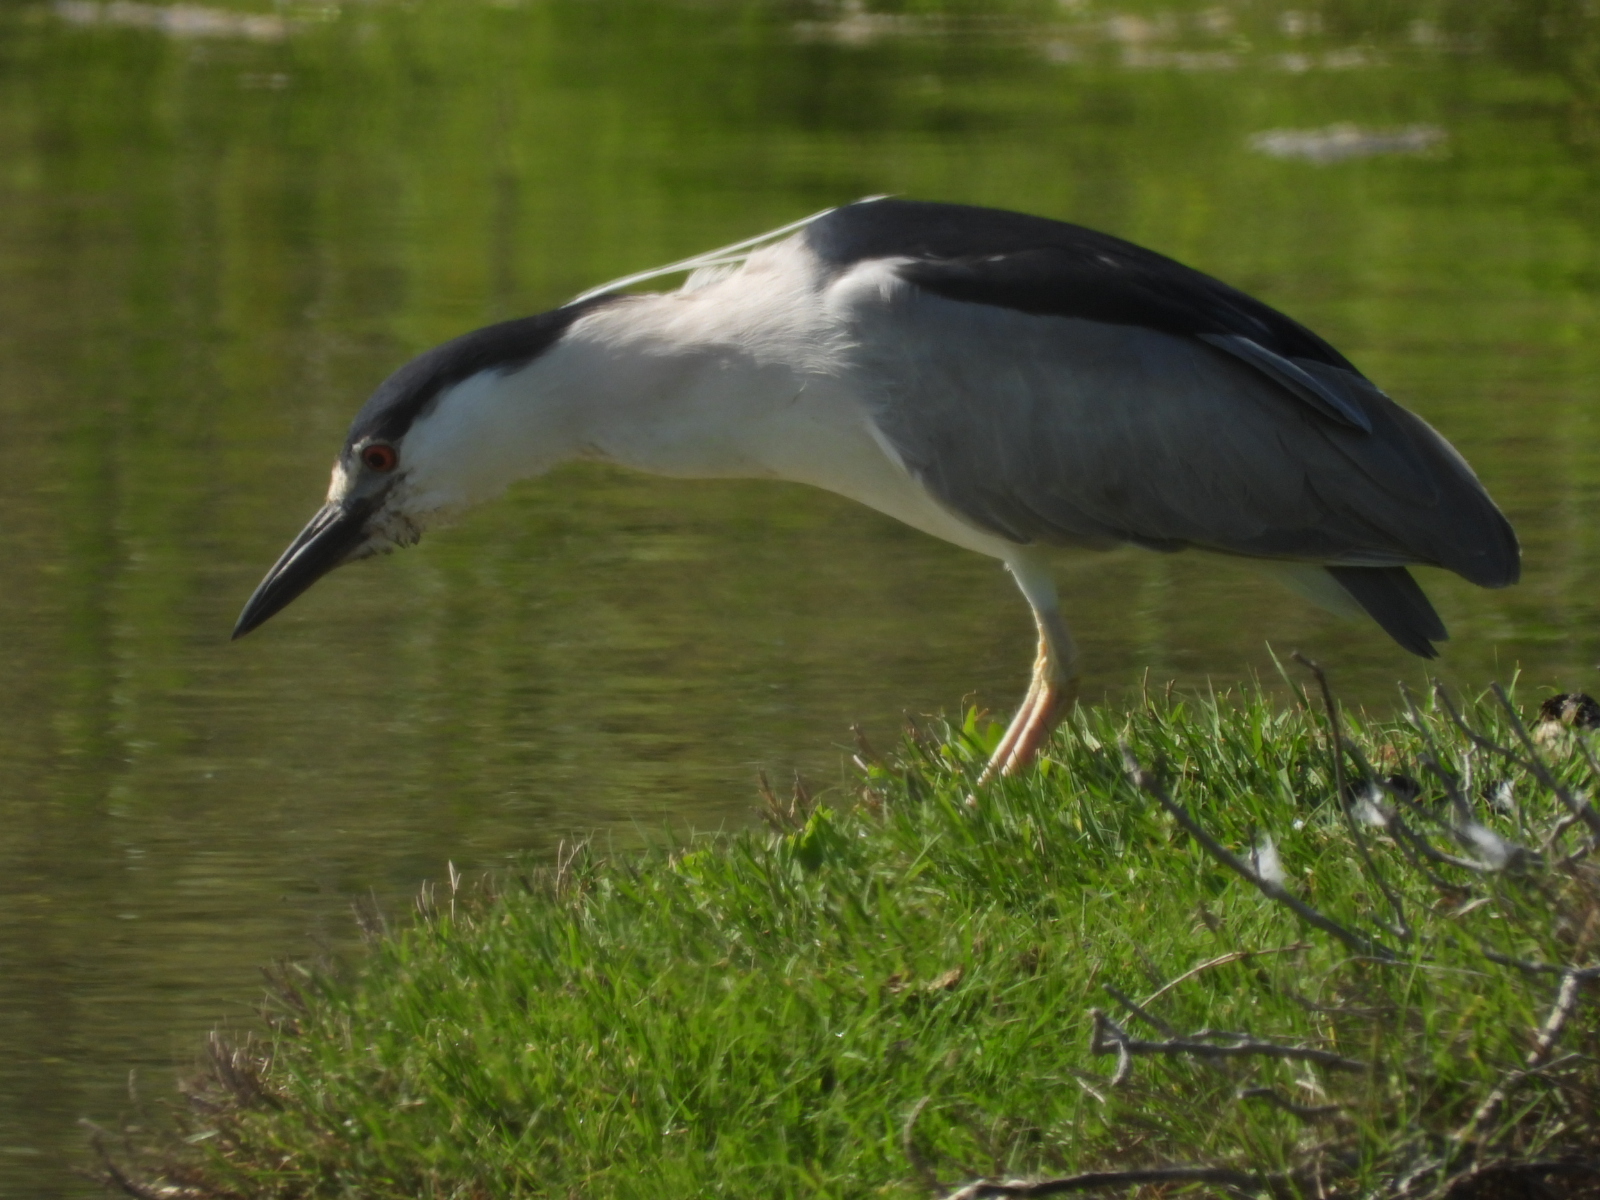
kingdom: Animalia
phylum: Chordata
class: Aves
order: Pelecaniformes
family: Ardeidae
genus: Nycticorax
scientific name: Nycticorax nycticorax
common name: Black-crowned night heron
